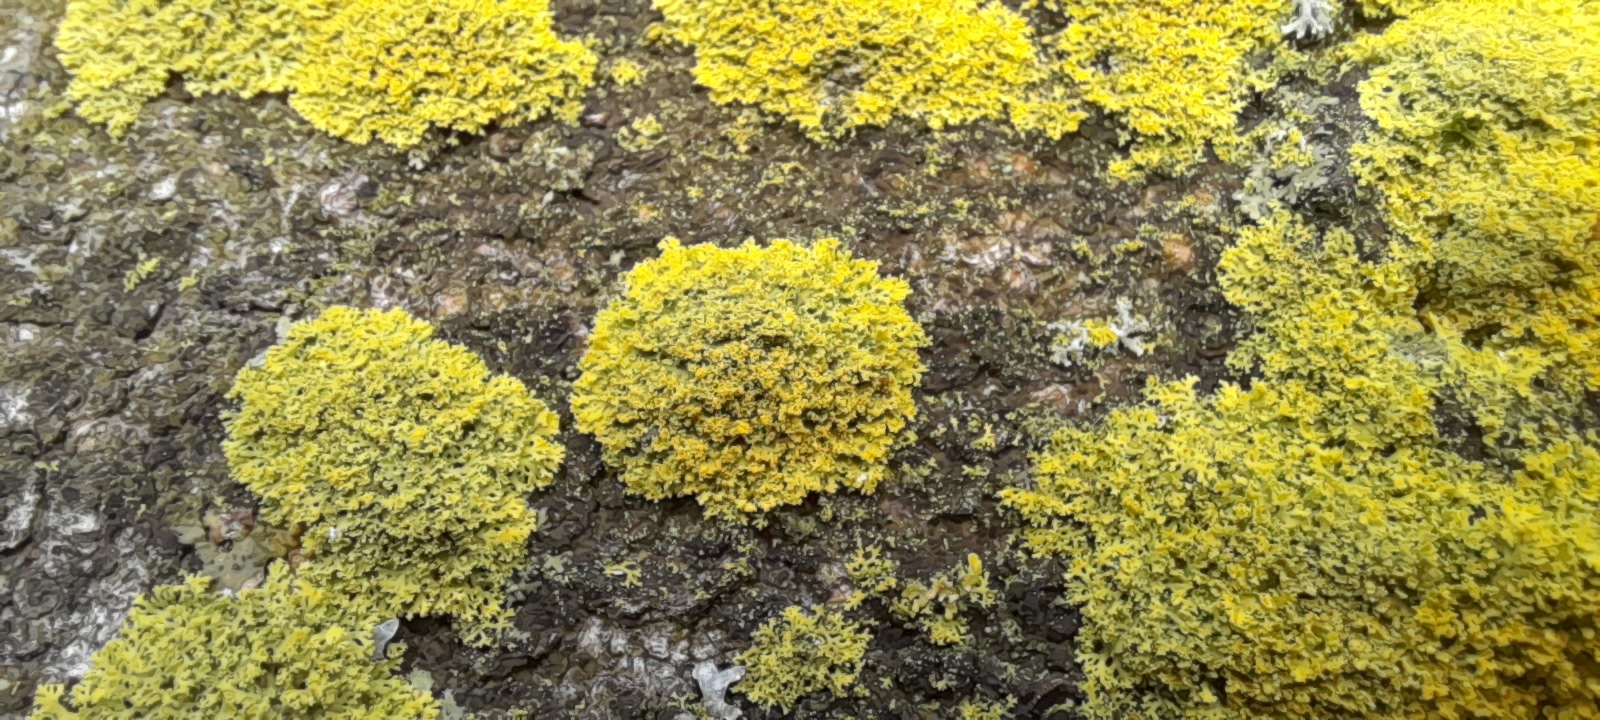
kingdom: Fungi
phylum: Ascomycota
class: Candelariomycetes
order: Candelariales
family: Candelariaceae
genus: Candelaria
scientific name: Candelaria concolor
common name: Candleflame lichen
